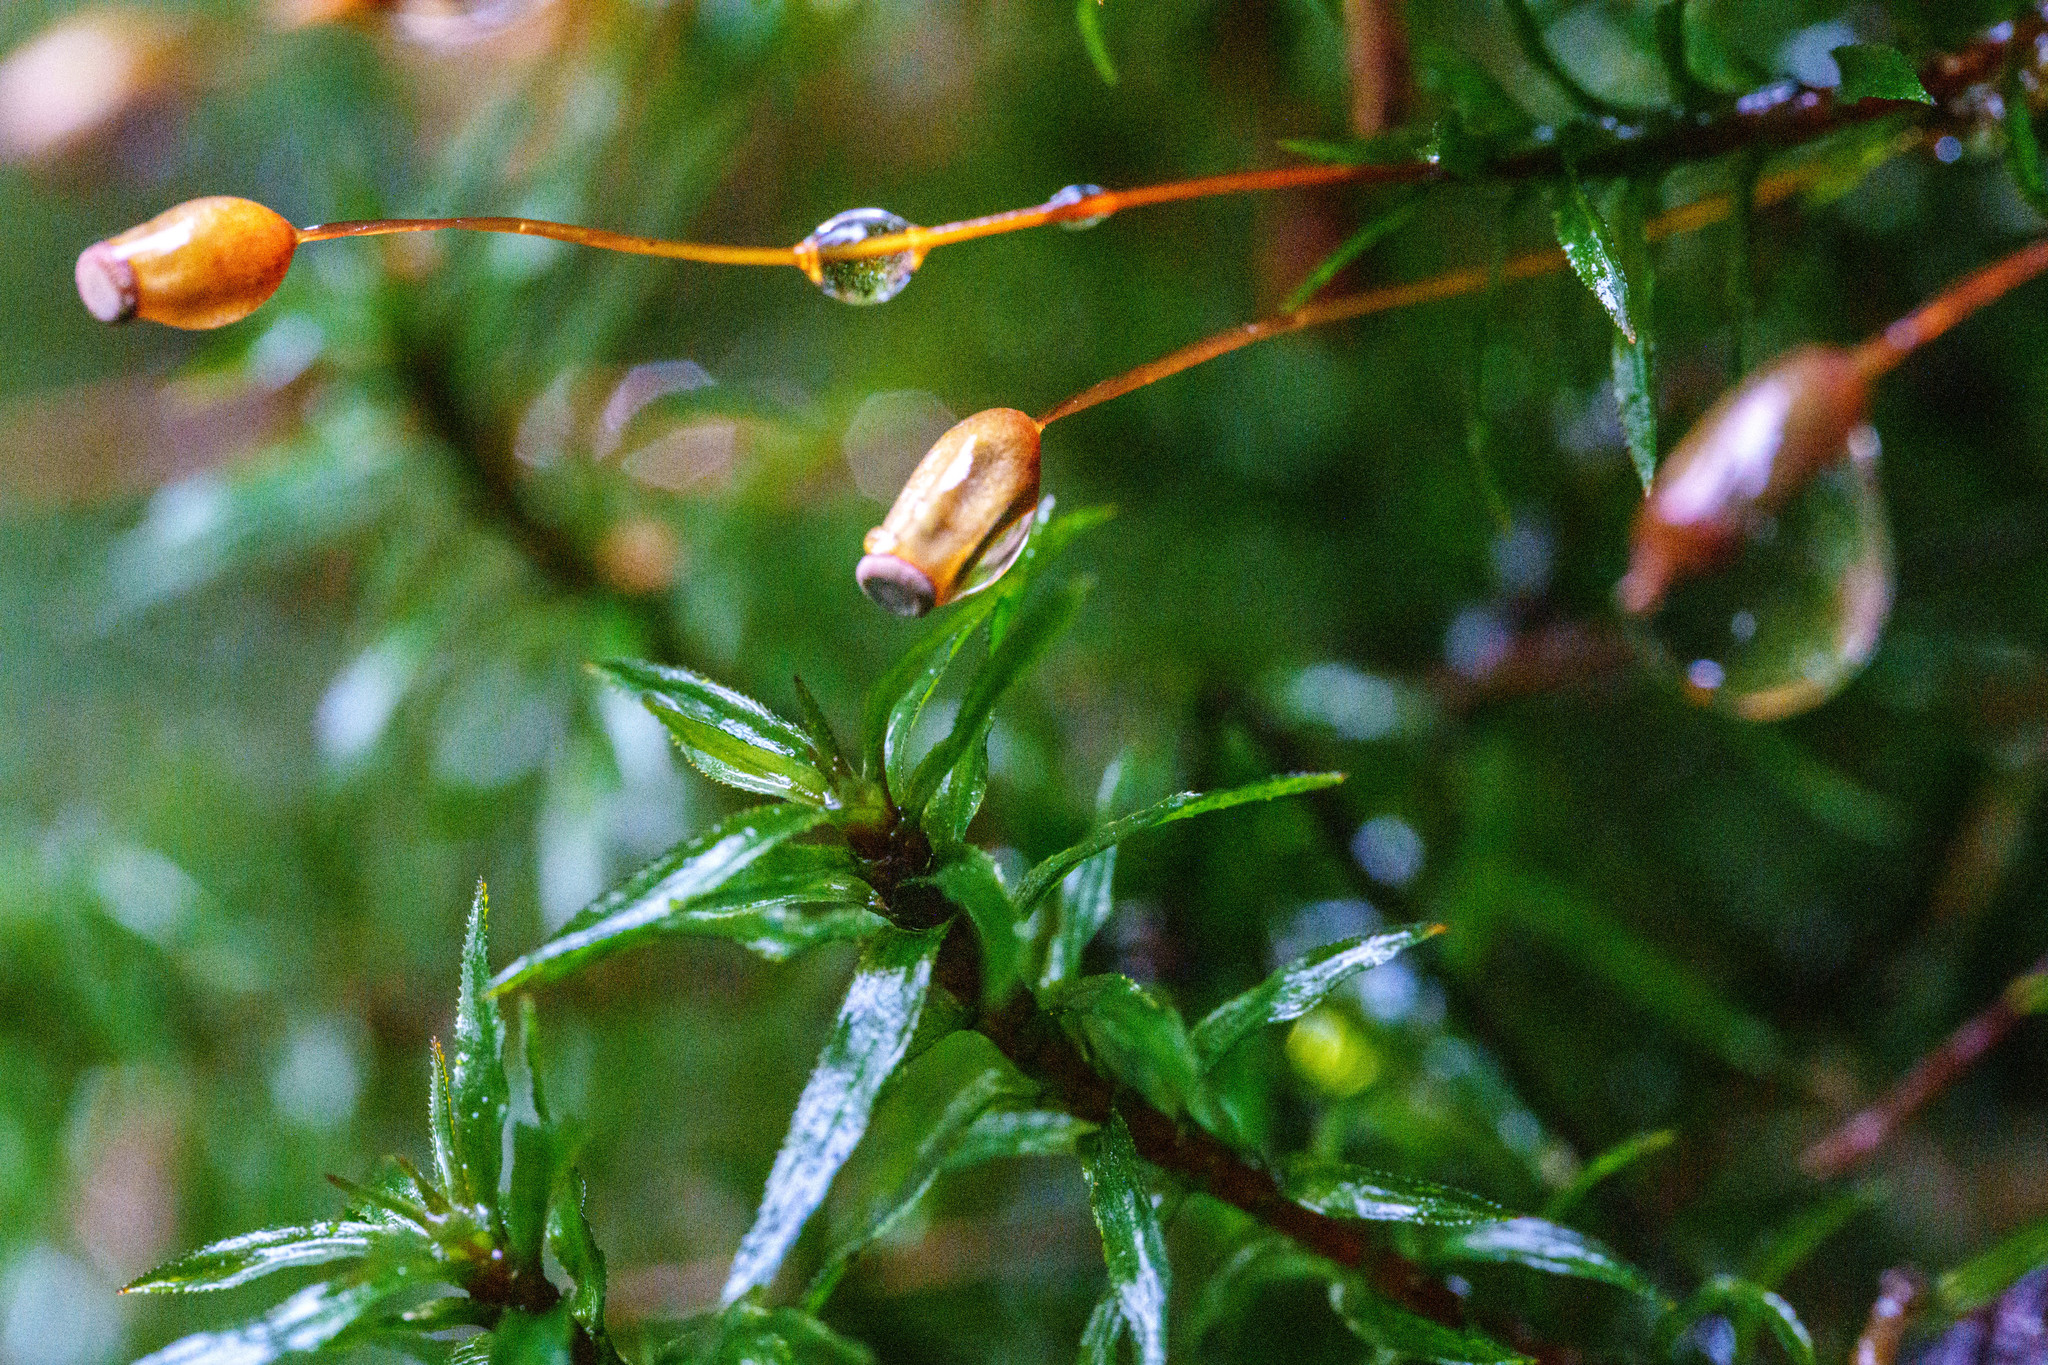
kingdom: Plantae
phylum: Bryophyta
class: Polytrichopsida
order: Polytrichales
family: Polytrichaceae
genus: Pogonatum
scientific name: Pogonatum contortum
